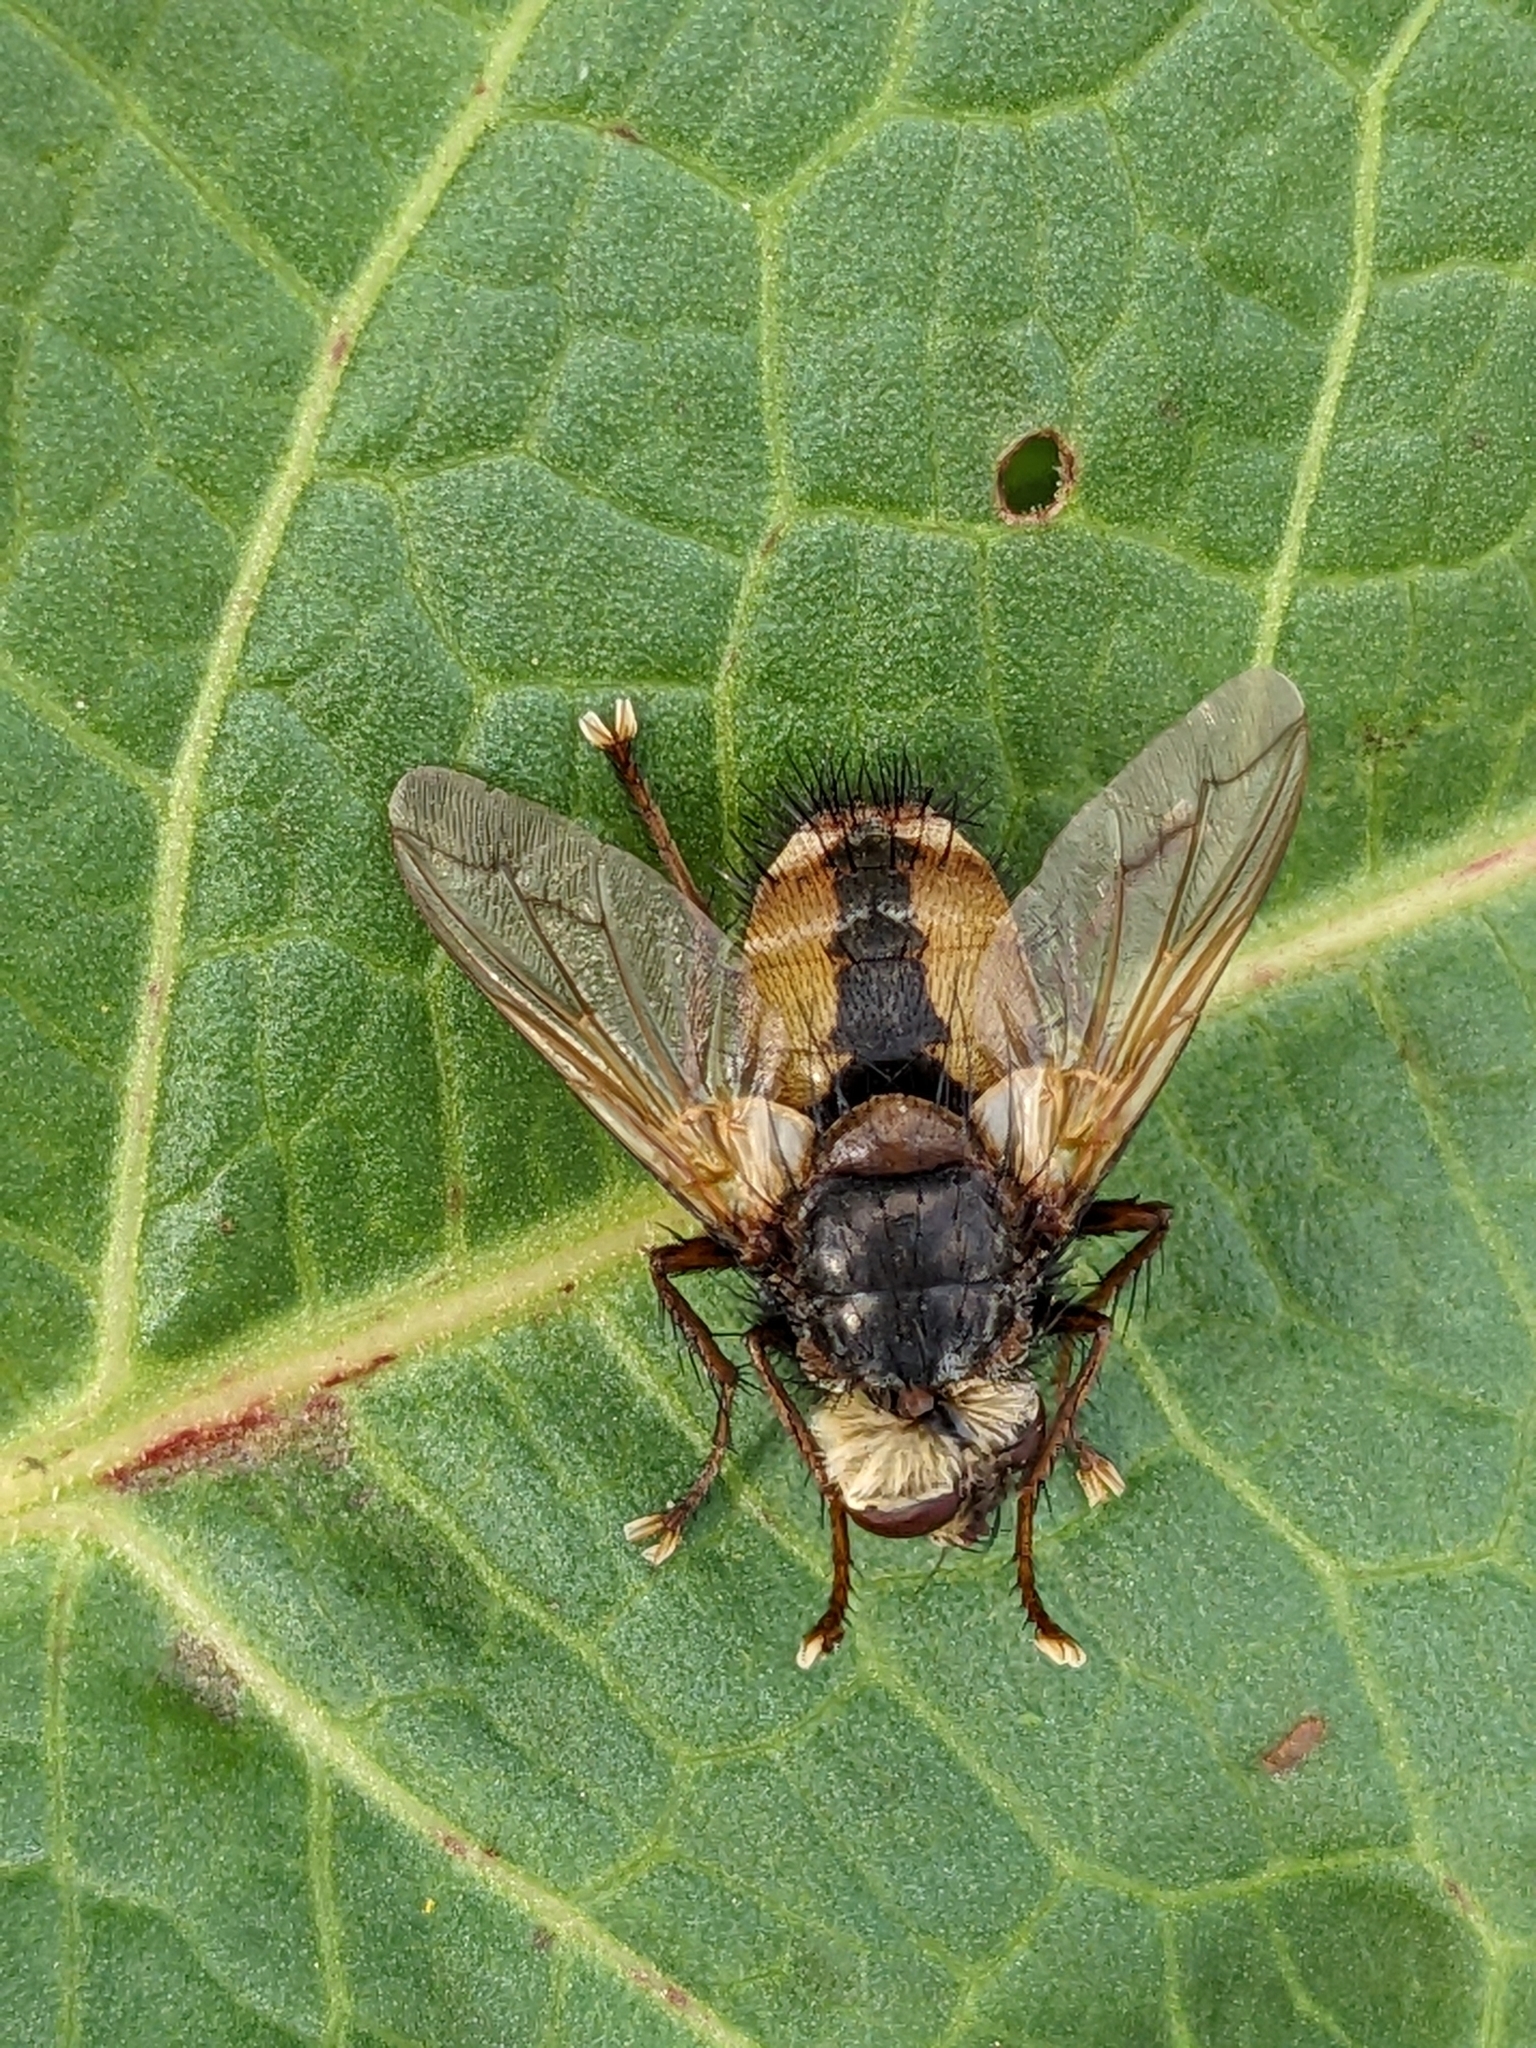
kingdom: Animalia
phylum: Arthropoda
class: Insecta
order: Diptera
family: Tachinidae
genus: Tachina
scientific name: Tachina fera
